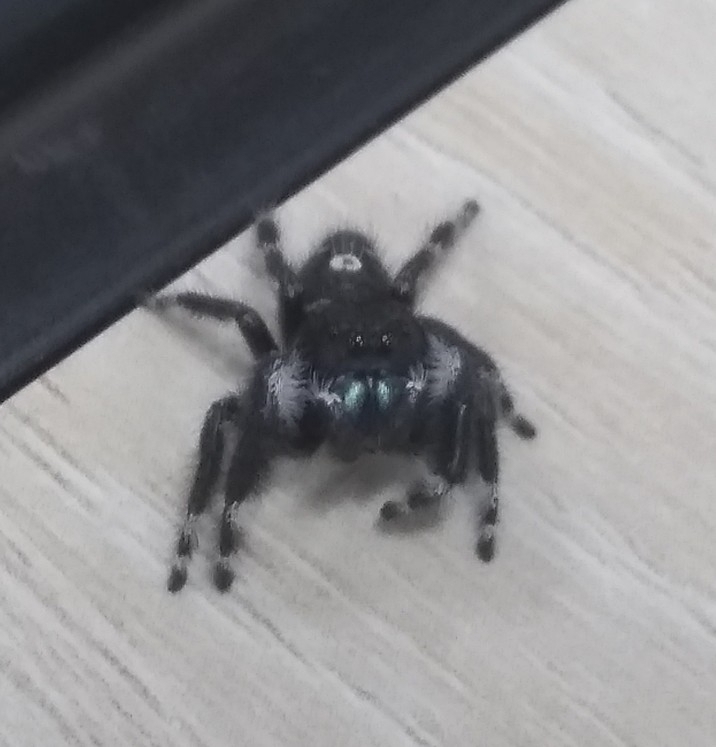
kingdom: Animalia
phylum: Arthropoda
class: Arachnida
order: Araneae
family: Salticidae
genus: Phidippus
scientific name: Phidippus audax
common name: Bold jumper
